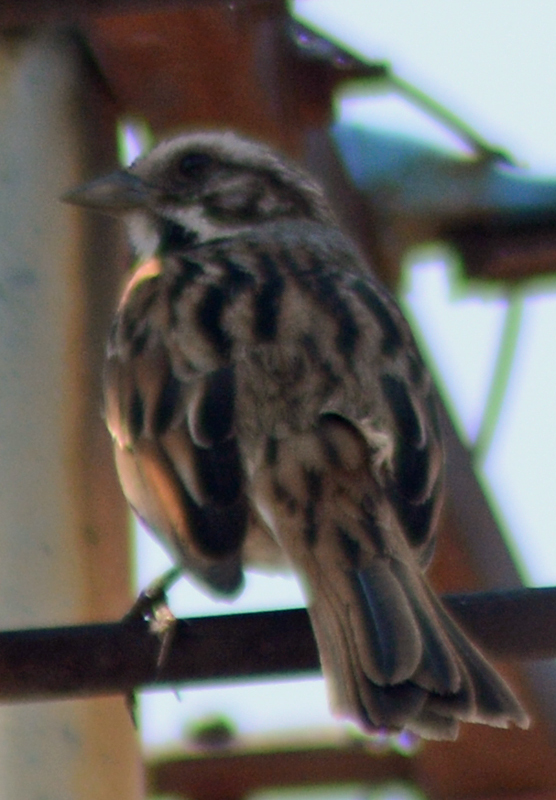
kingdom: Animalia
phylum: Chordata
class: Aves
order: Passeriformes
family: Passerellidae
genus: Melospiza
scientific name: Melospiza melodia
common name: Song sparrow
